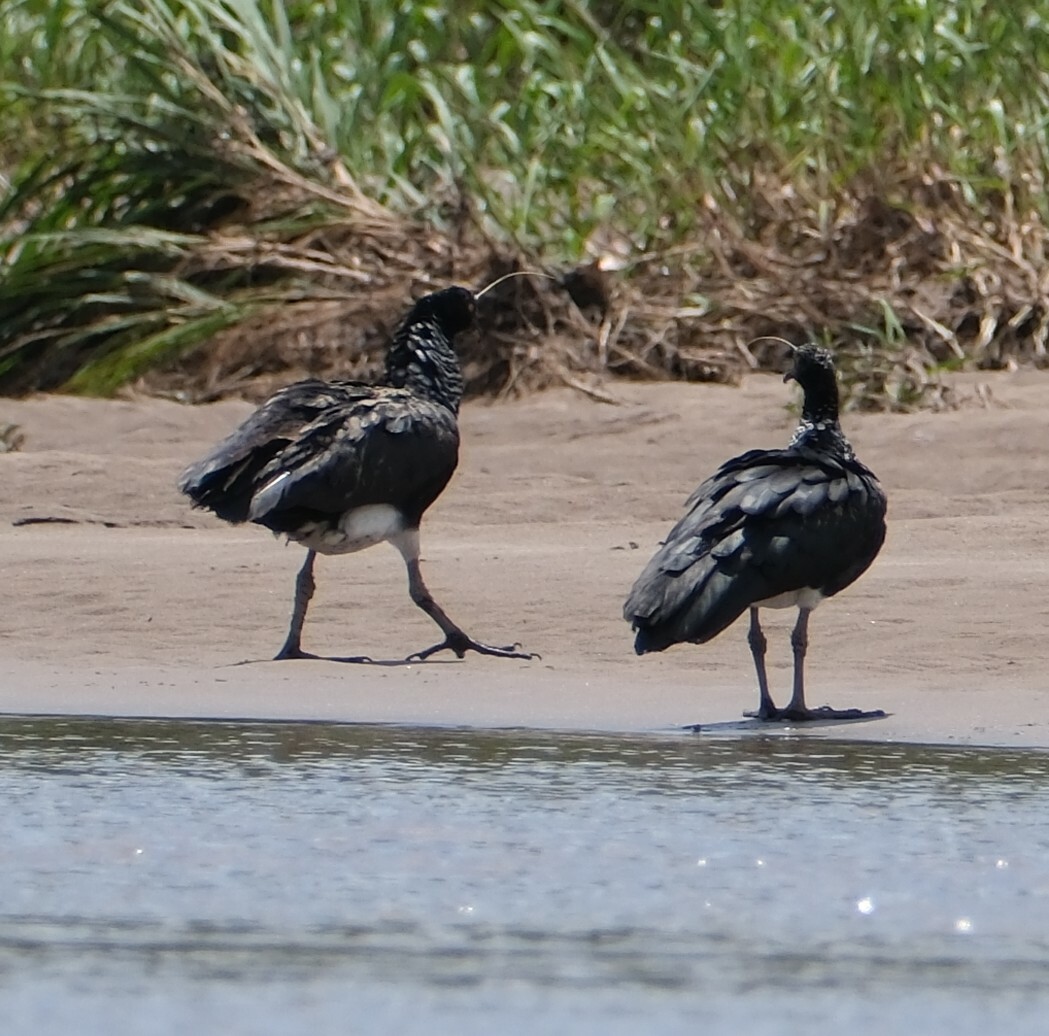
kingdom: Animalia
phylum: Chordata
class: Aves
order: Anseriformes
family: Anhimidae
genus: Anhima
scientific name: Anhima cornuta
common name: Horned screamer
